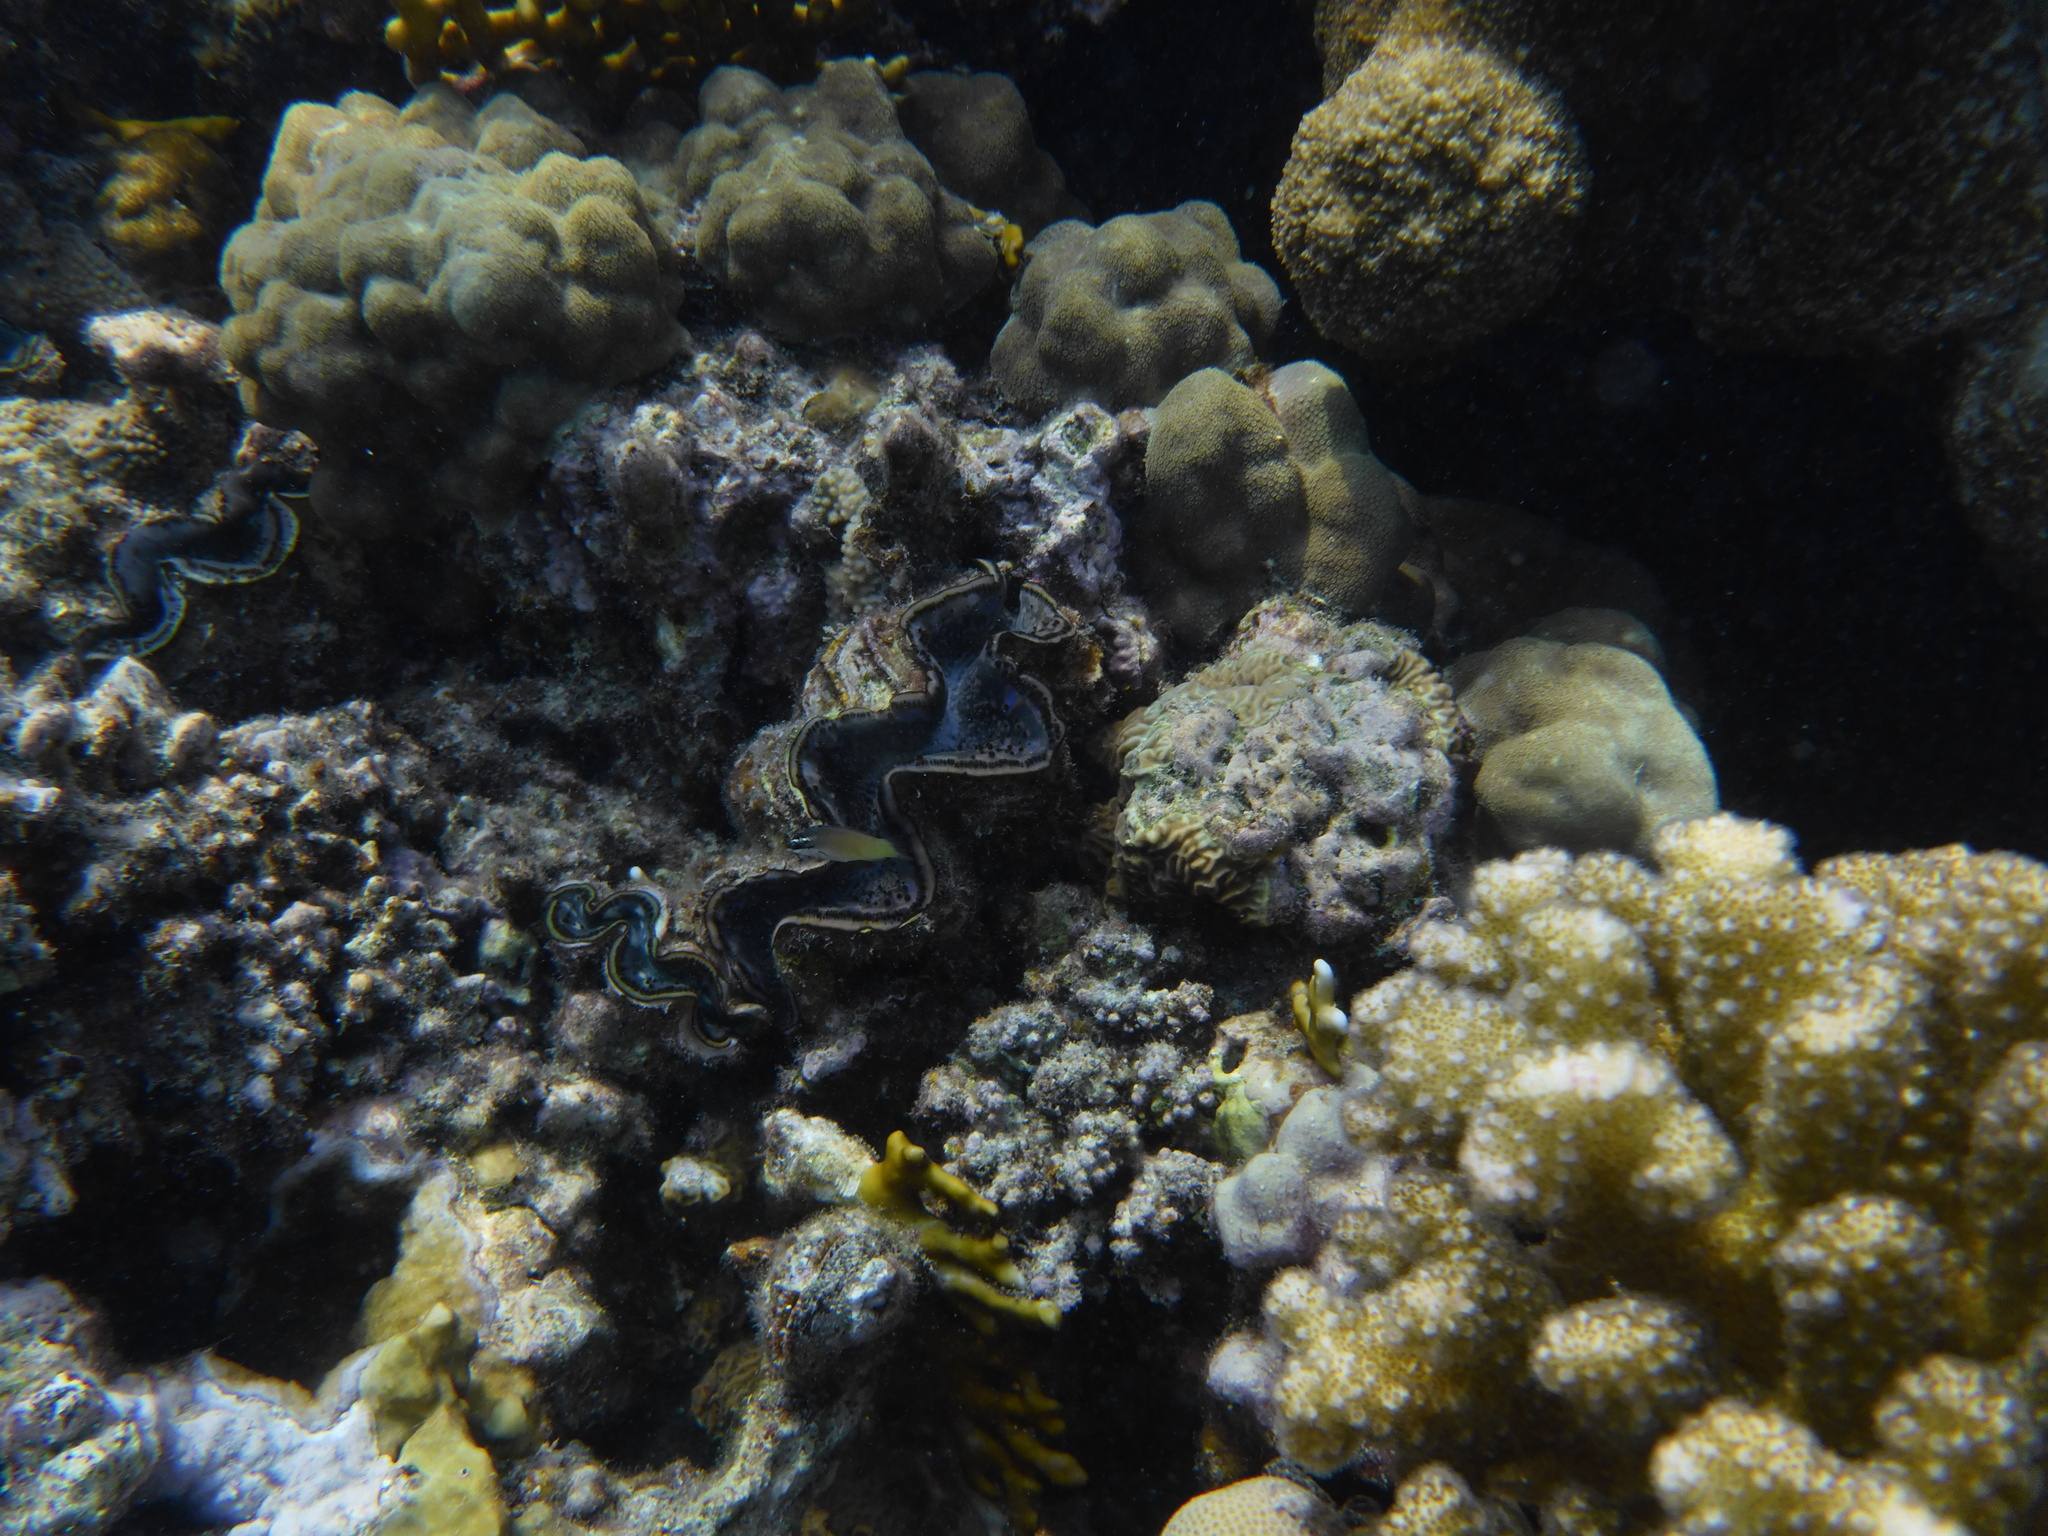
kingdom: Animalia
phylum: Mollusca
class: Bivalvia
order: Cardiida
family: Cardiidae
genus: Tridacna
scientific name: Tridacna maxima
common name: Small giant clam
